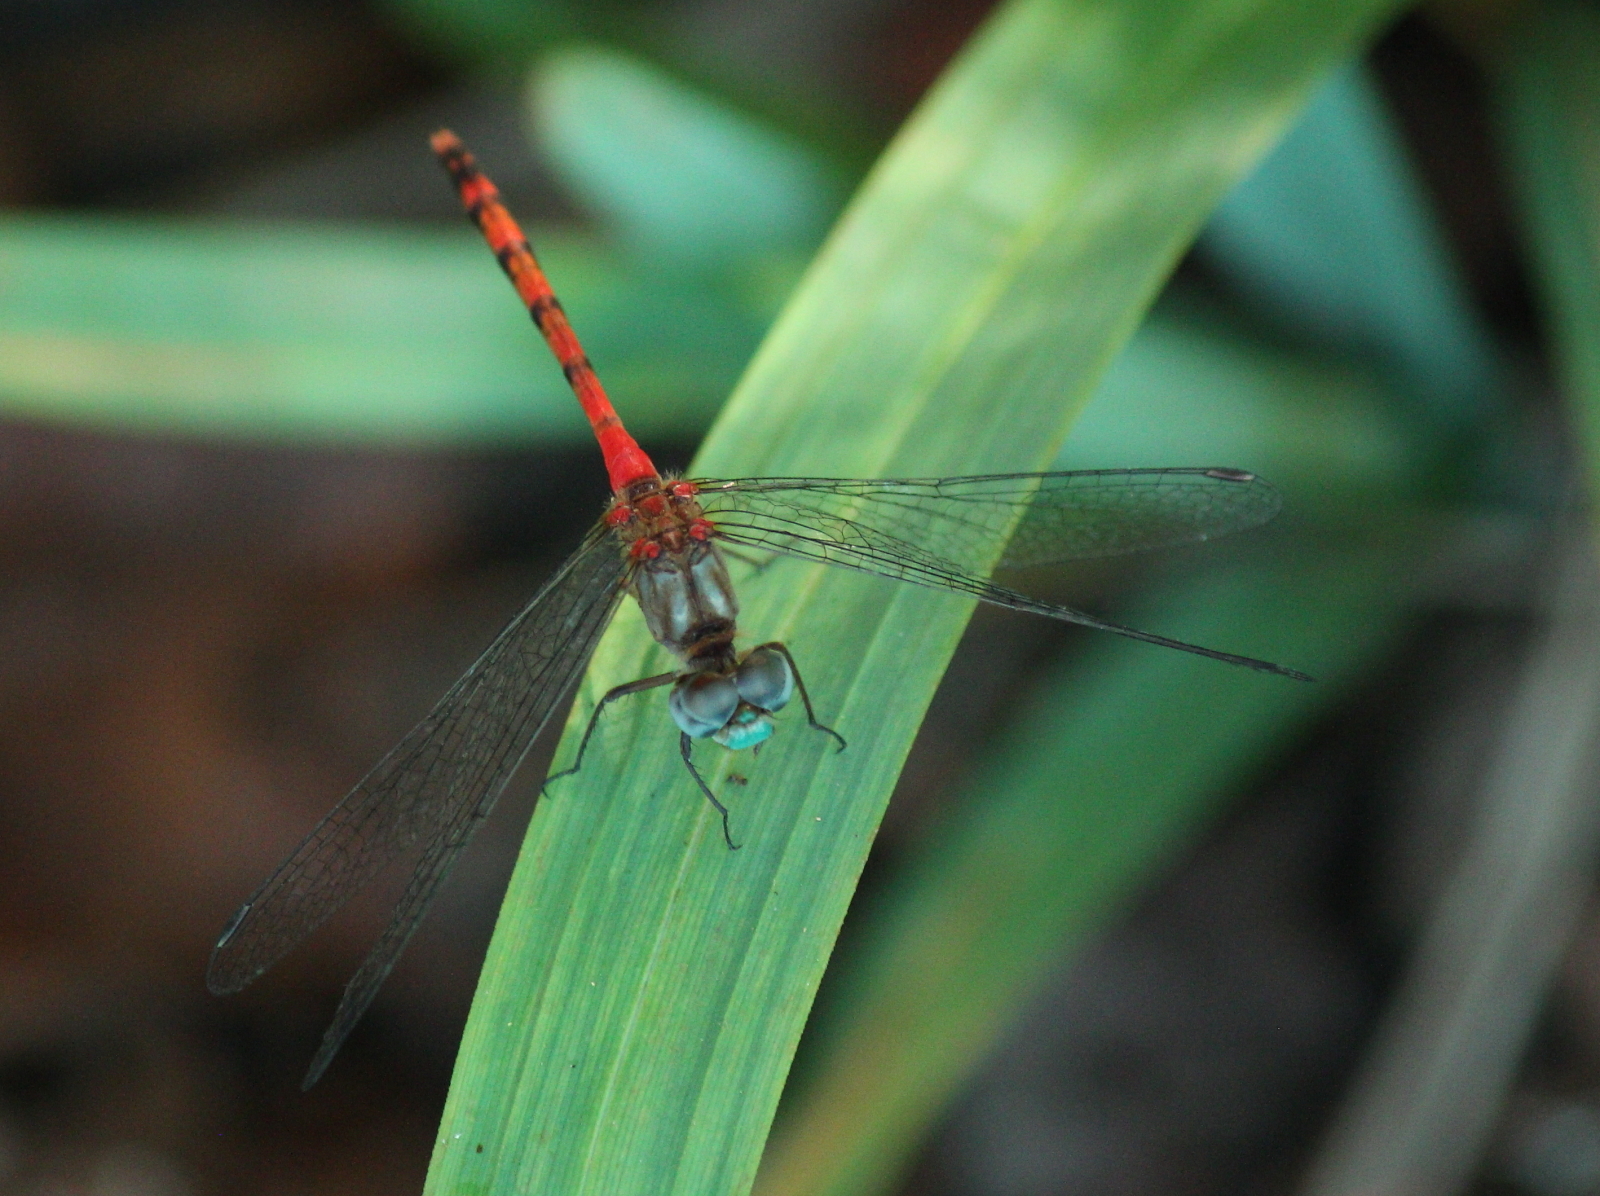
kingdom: Animalia
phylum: Arthropoda
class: Insecta
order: Odonata
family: Libellulidae
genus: Sympetrum
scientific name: Sympetrum ambiguum
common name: Blue-faced meadowhawk
